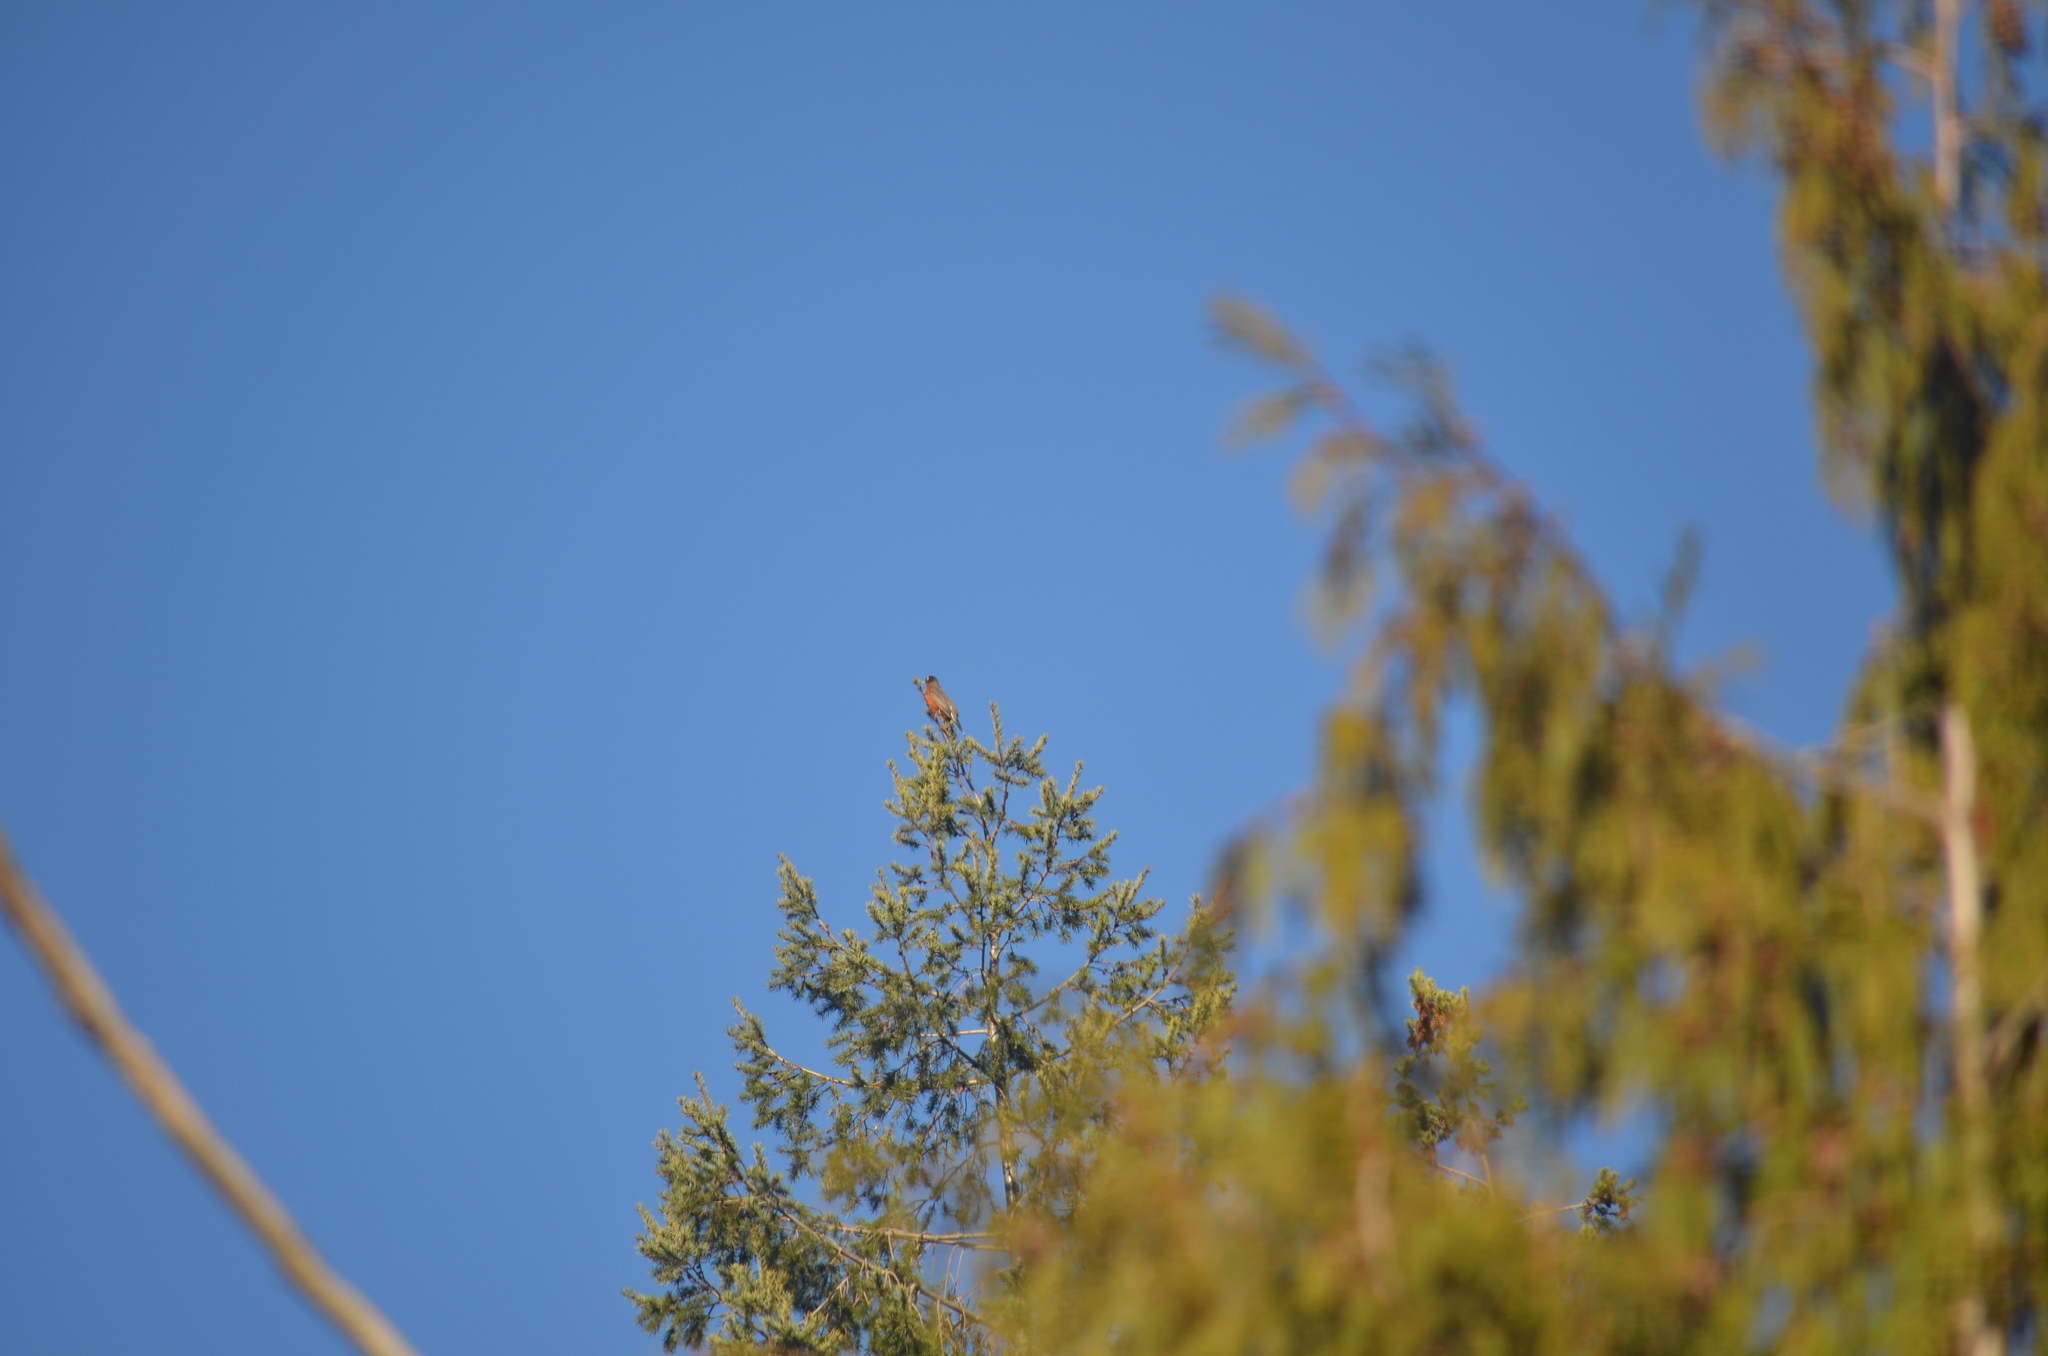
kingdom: Animalia
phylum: Chordata
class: Aves
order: Passeriformes
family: Turdidae
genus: Turdus
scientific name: Turdus migratorius
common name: American robin
